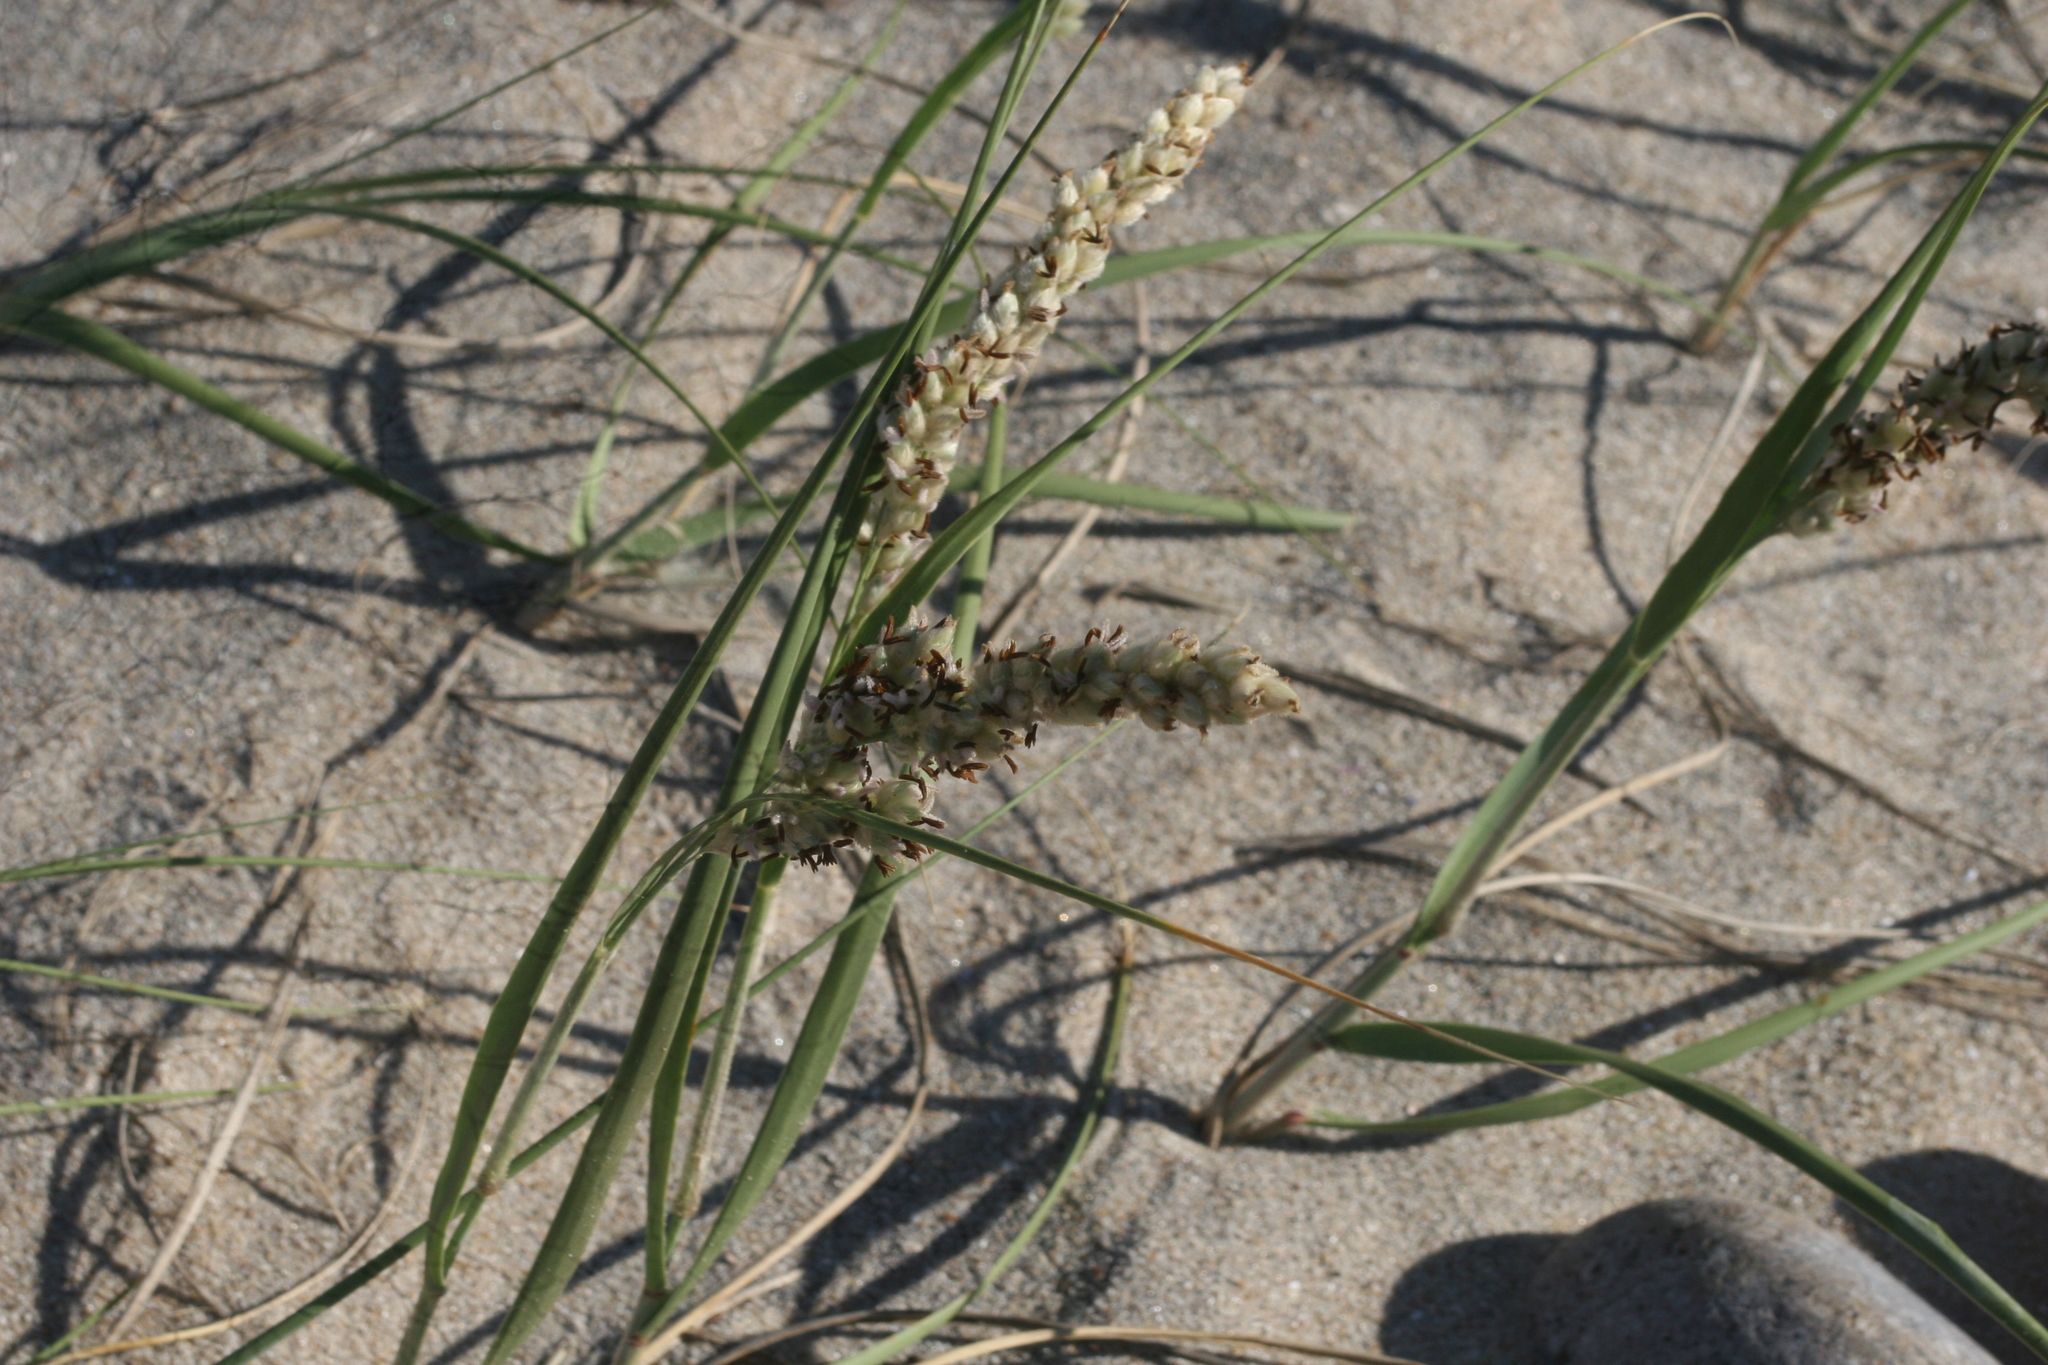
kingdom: Plantae
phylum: Tracheophyta
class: Liliopsida
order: Poales
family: Poaceae
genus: Panicum
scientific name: Panicum racemosum
